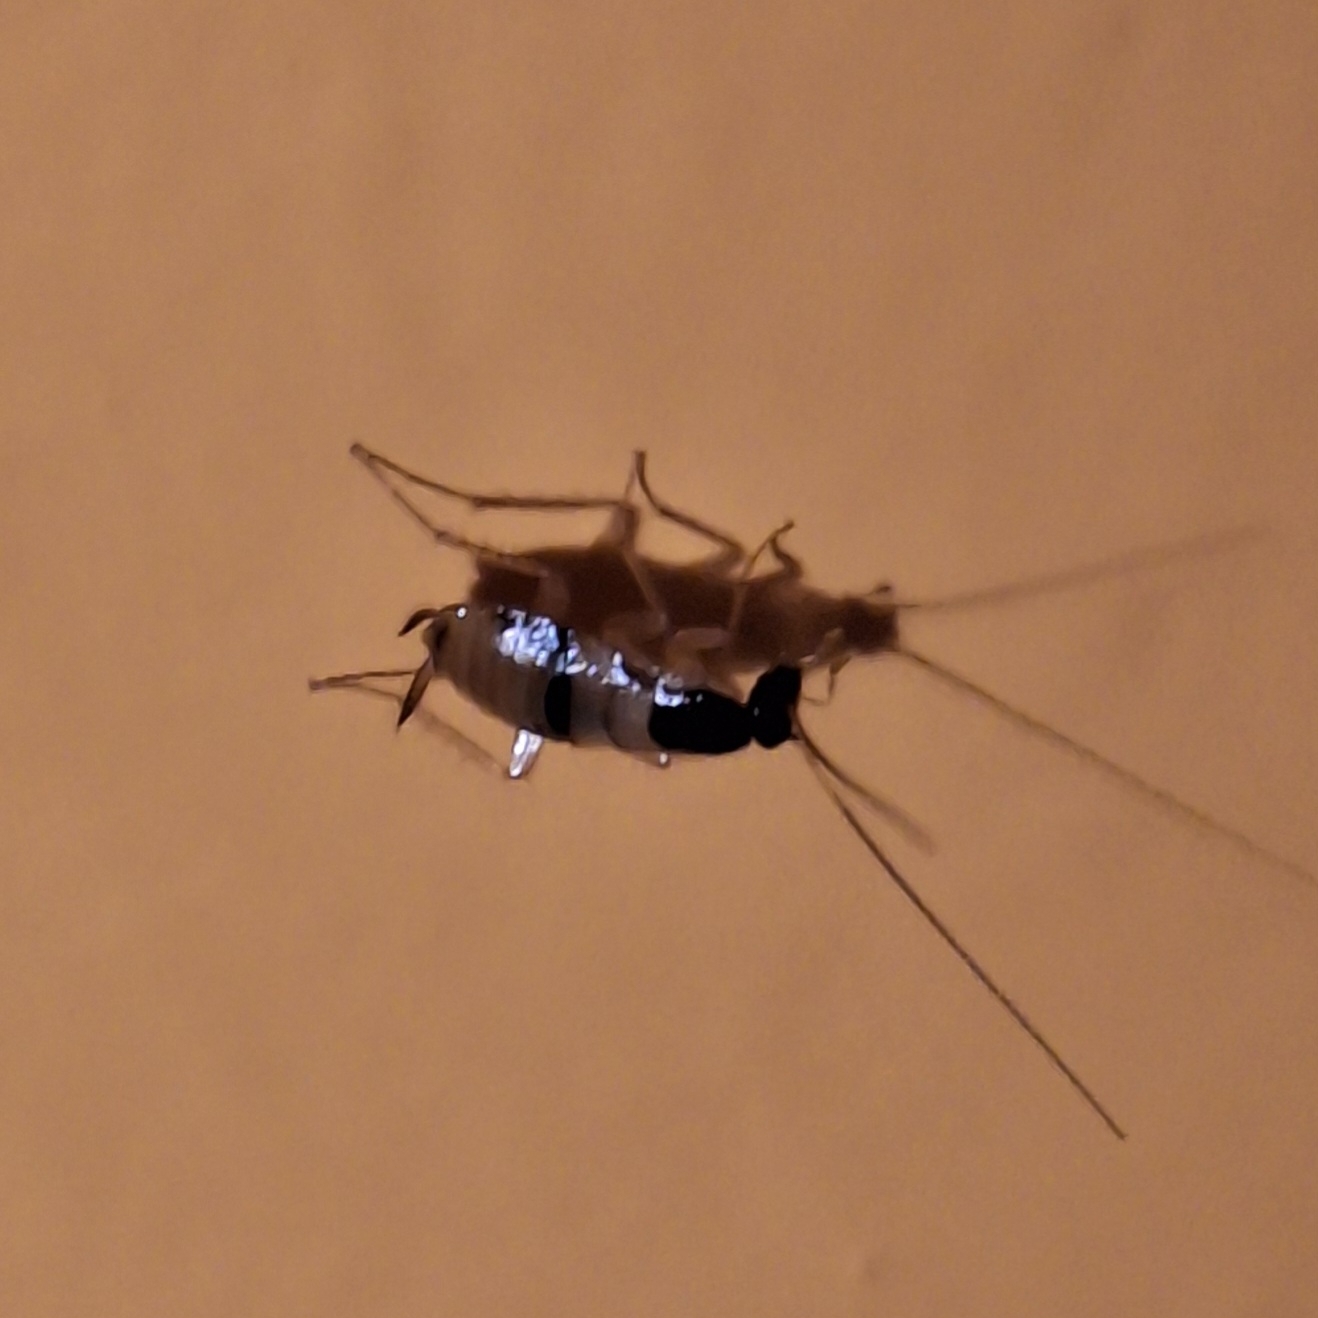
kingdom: Animalia
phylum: Arthropoda
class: Insecta
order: Blattodea
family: Ectobiidae
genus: Supella
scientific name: Supella longipalpa
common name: Brown-banded cockroach
